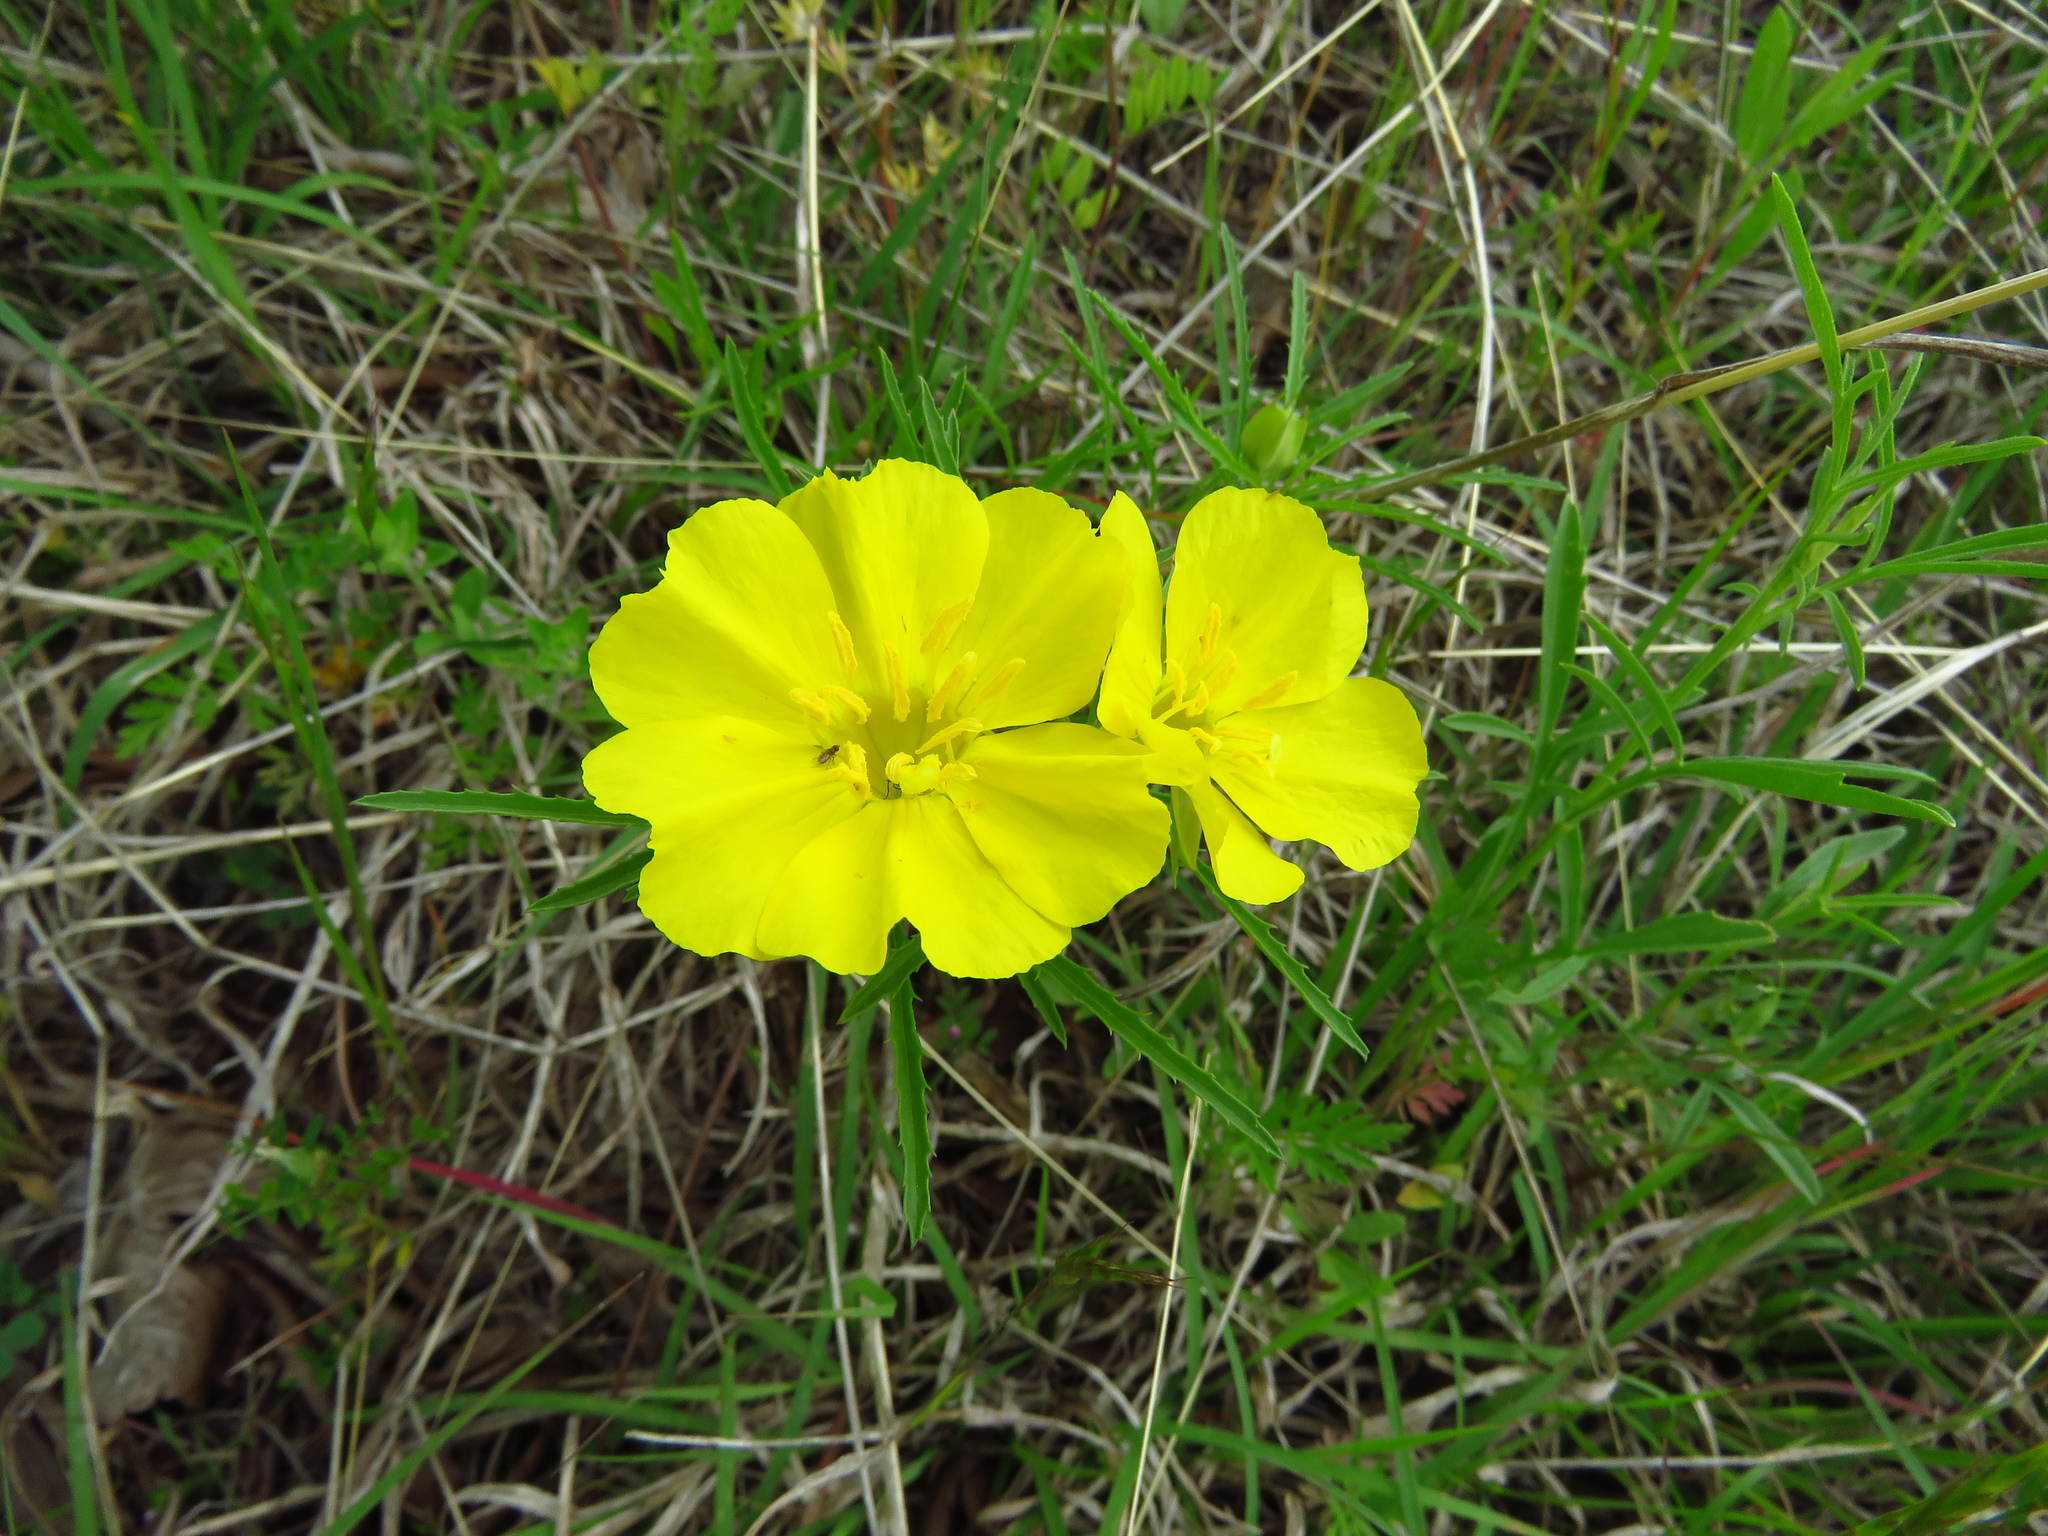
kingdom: Plantae
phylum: Tracheophyta
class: Magnoliopsida
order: Myrtales
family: Onagraceae
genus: Oenothera
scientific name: Oenothera
